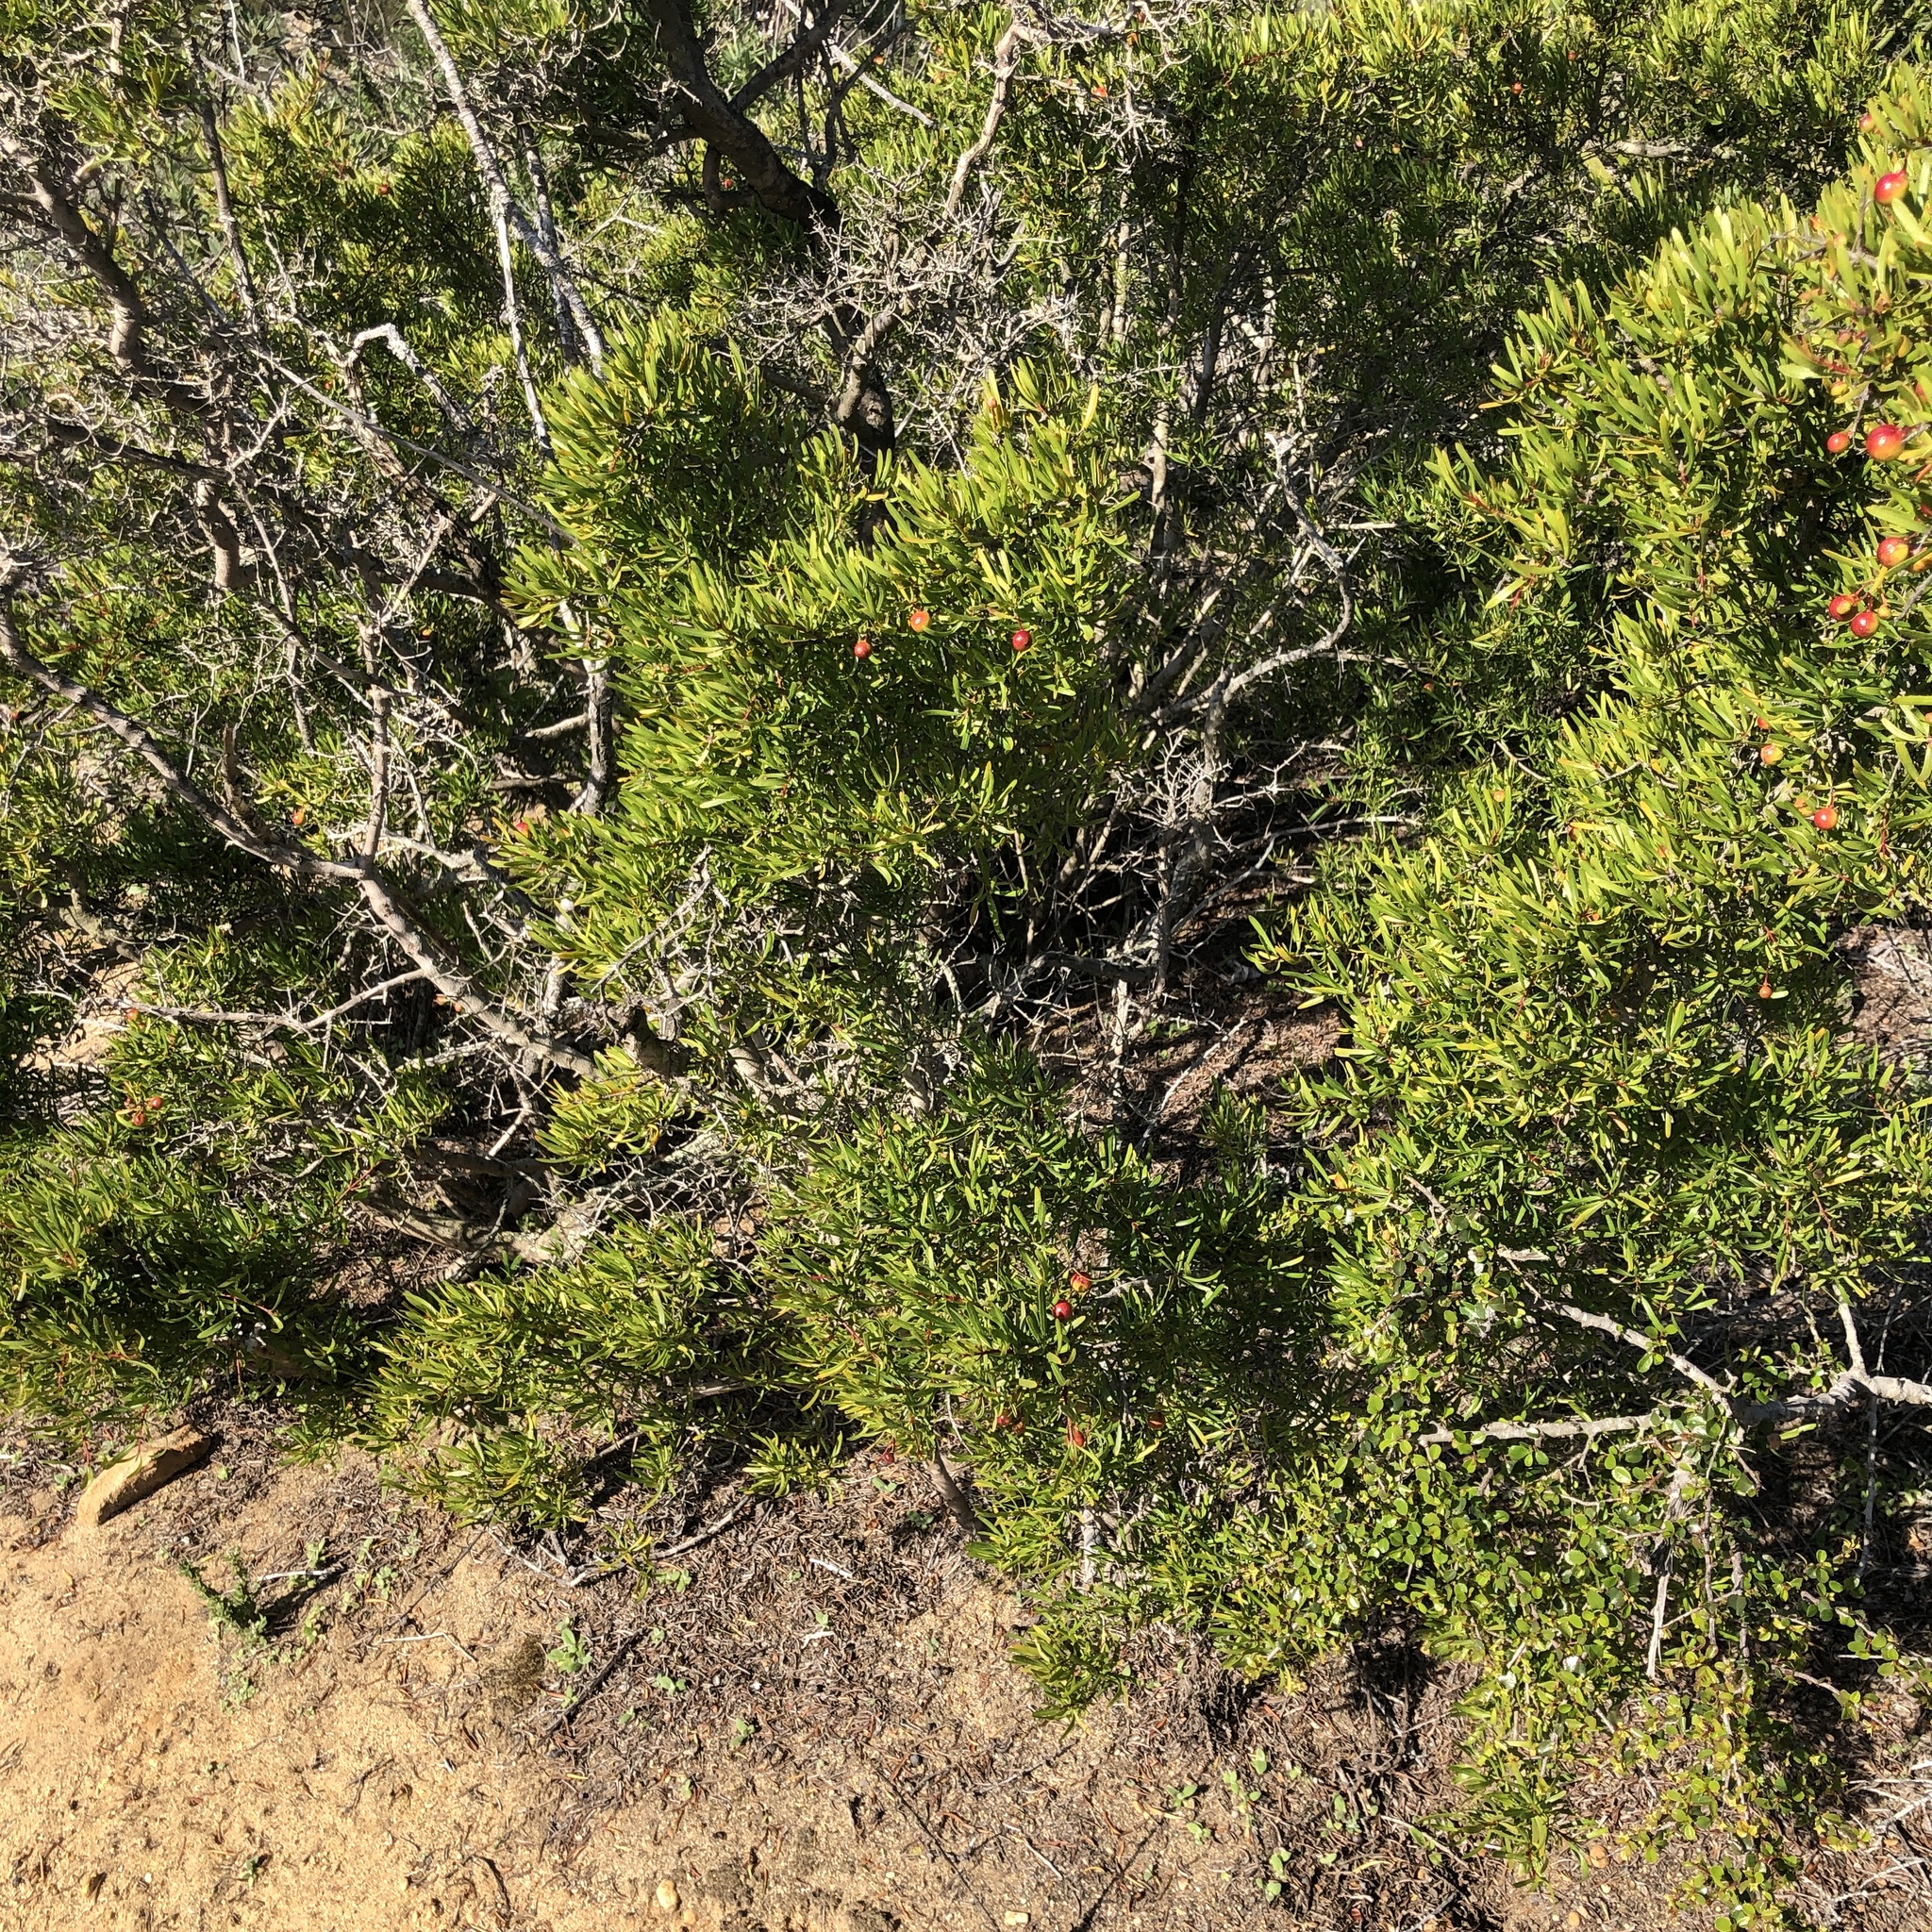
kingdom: Plantae
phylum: Tracheophyta
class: Magnoliopsida
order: Sapindales
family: Rutaceae
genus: Cneoridium
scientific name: Cneoridium dumosum
